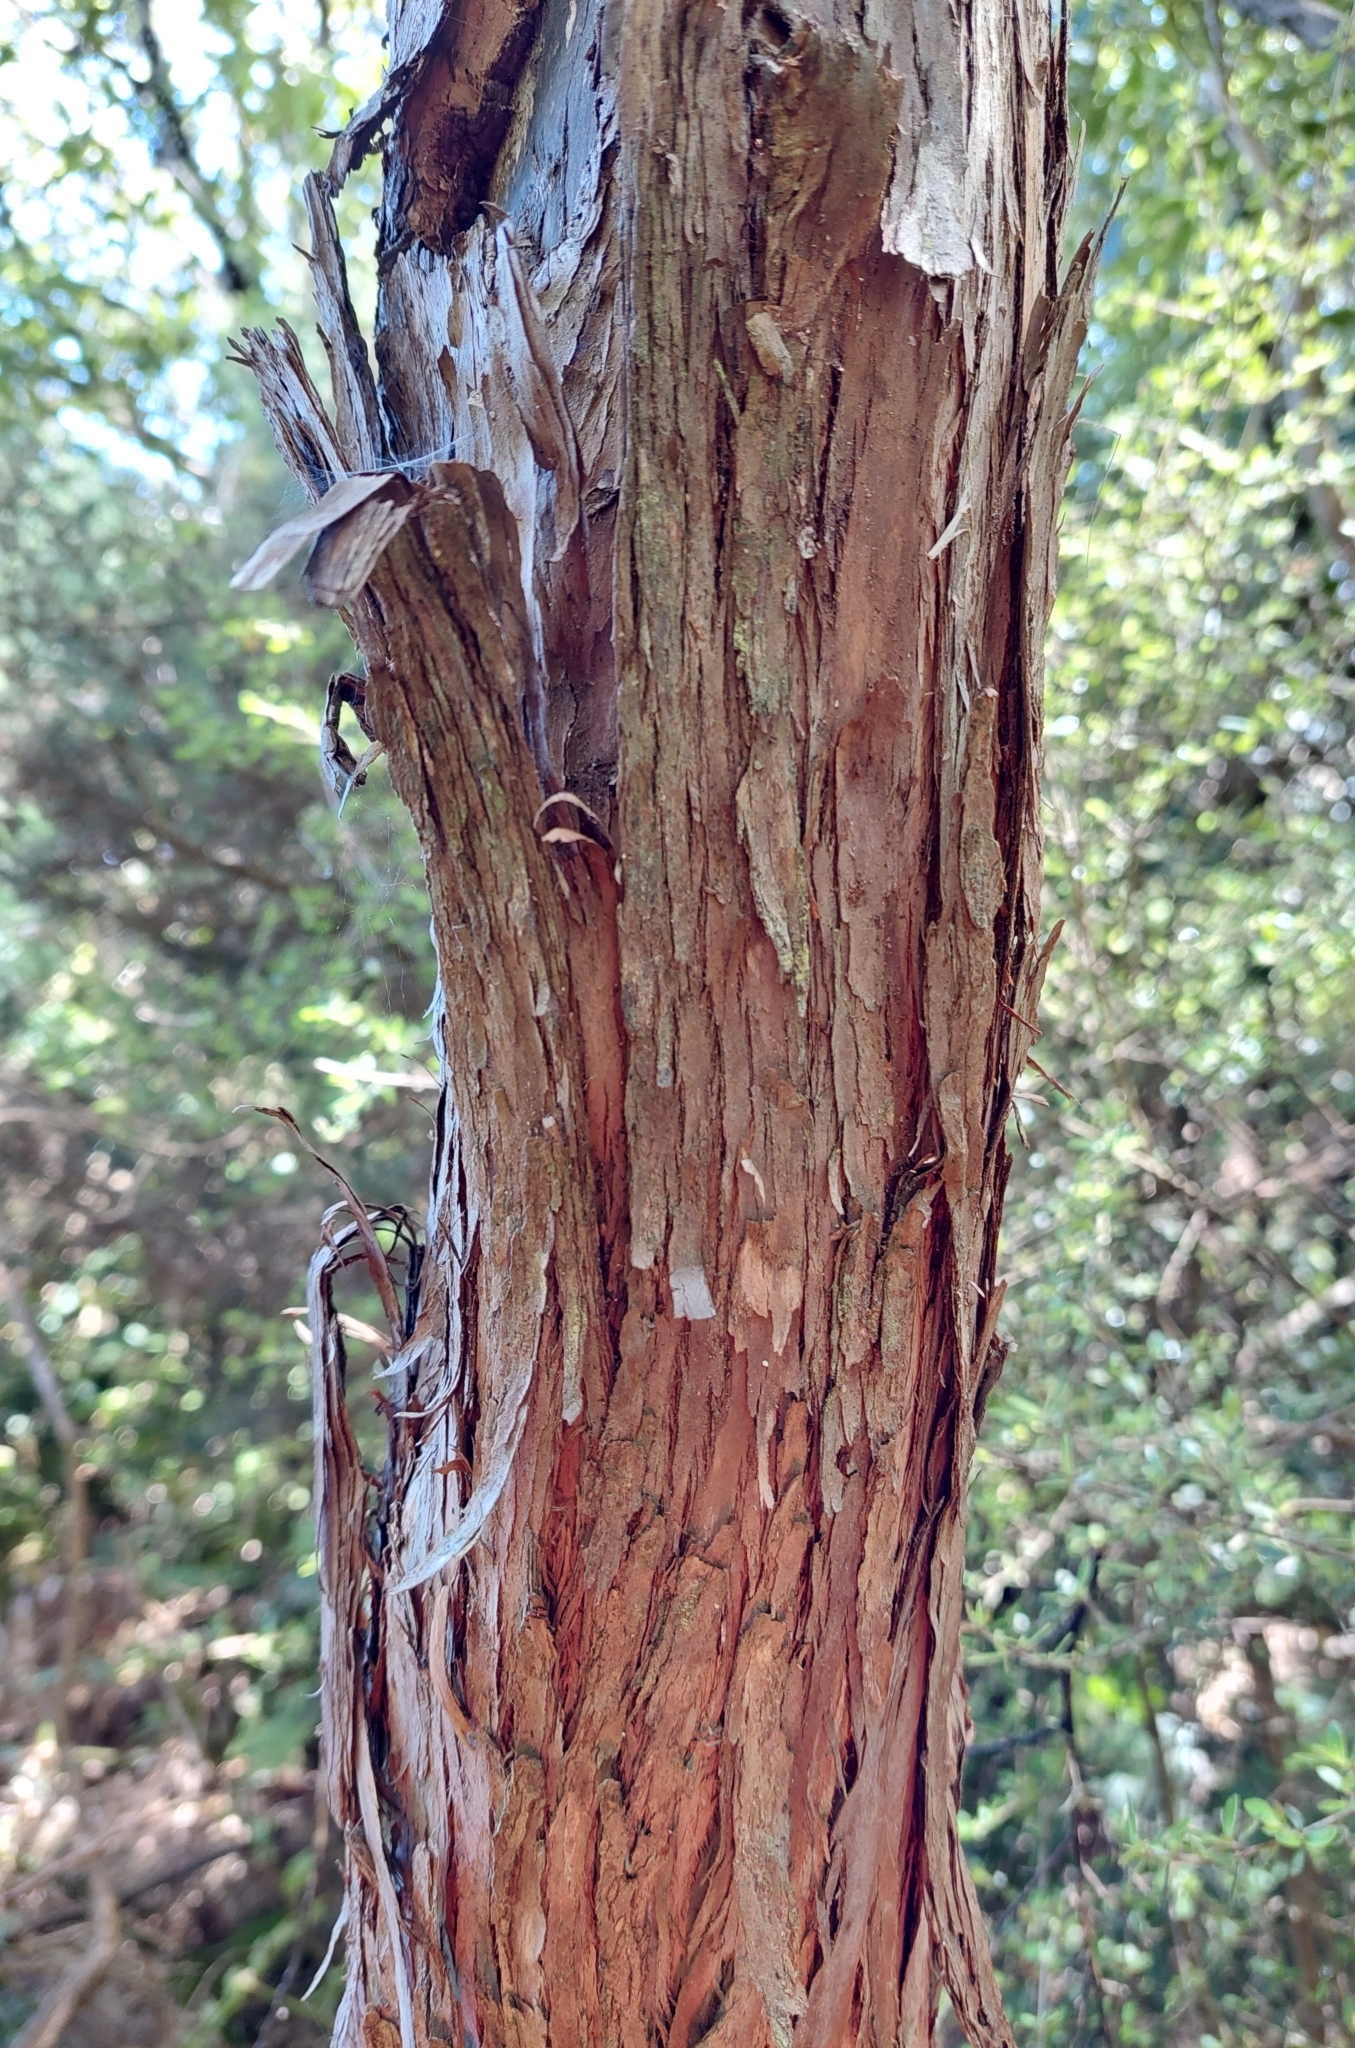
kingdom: Plantae
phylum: Tracheophyta
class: Magnoliopsida
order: Myrtales
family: Myrtaceae
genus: Leptospermum
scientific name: Leptospermum scoparium
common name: Broom tea-tree
